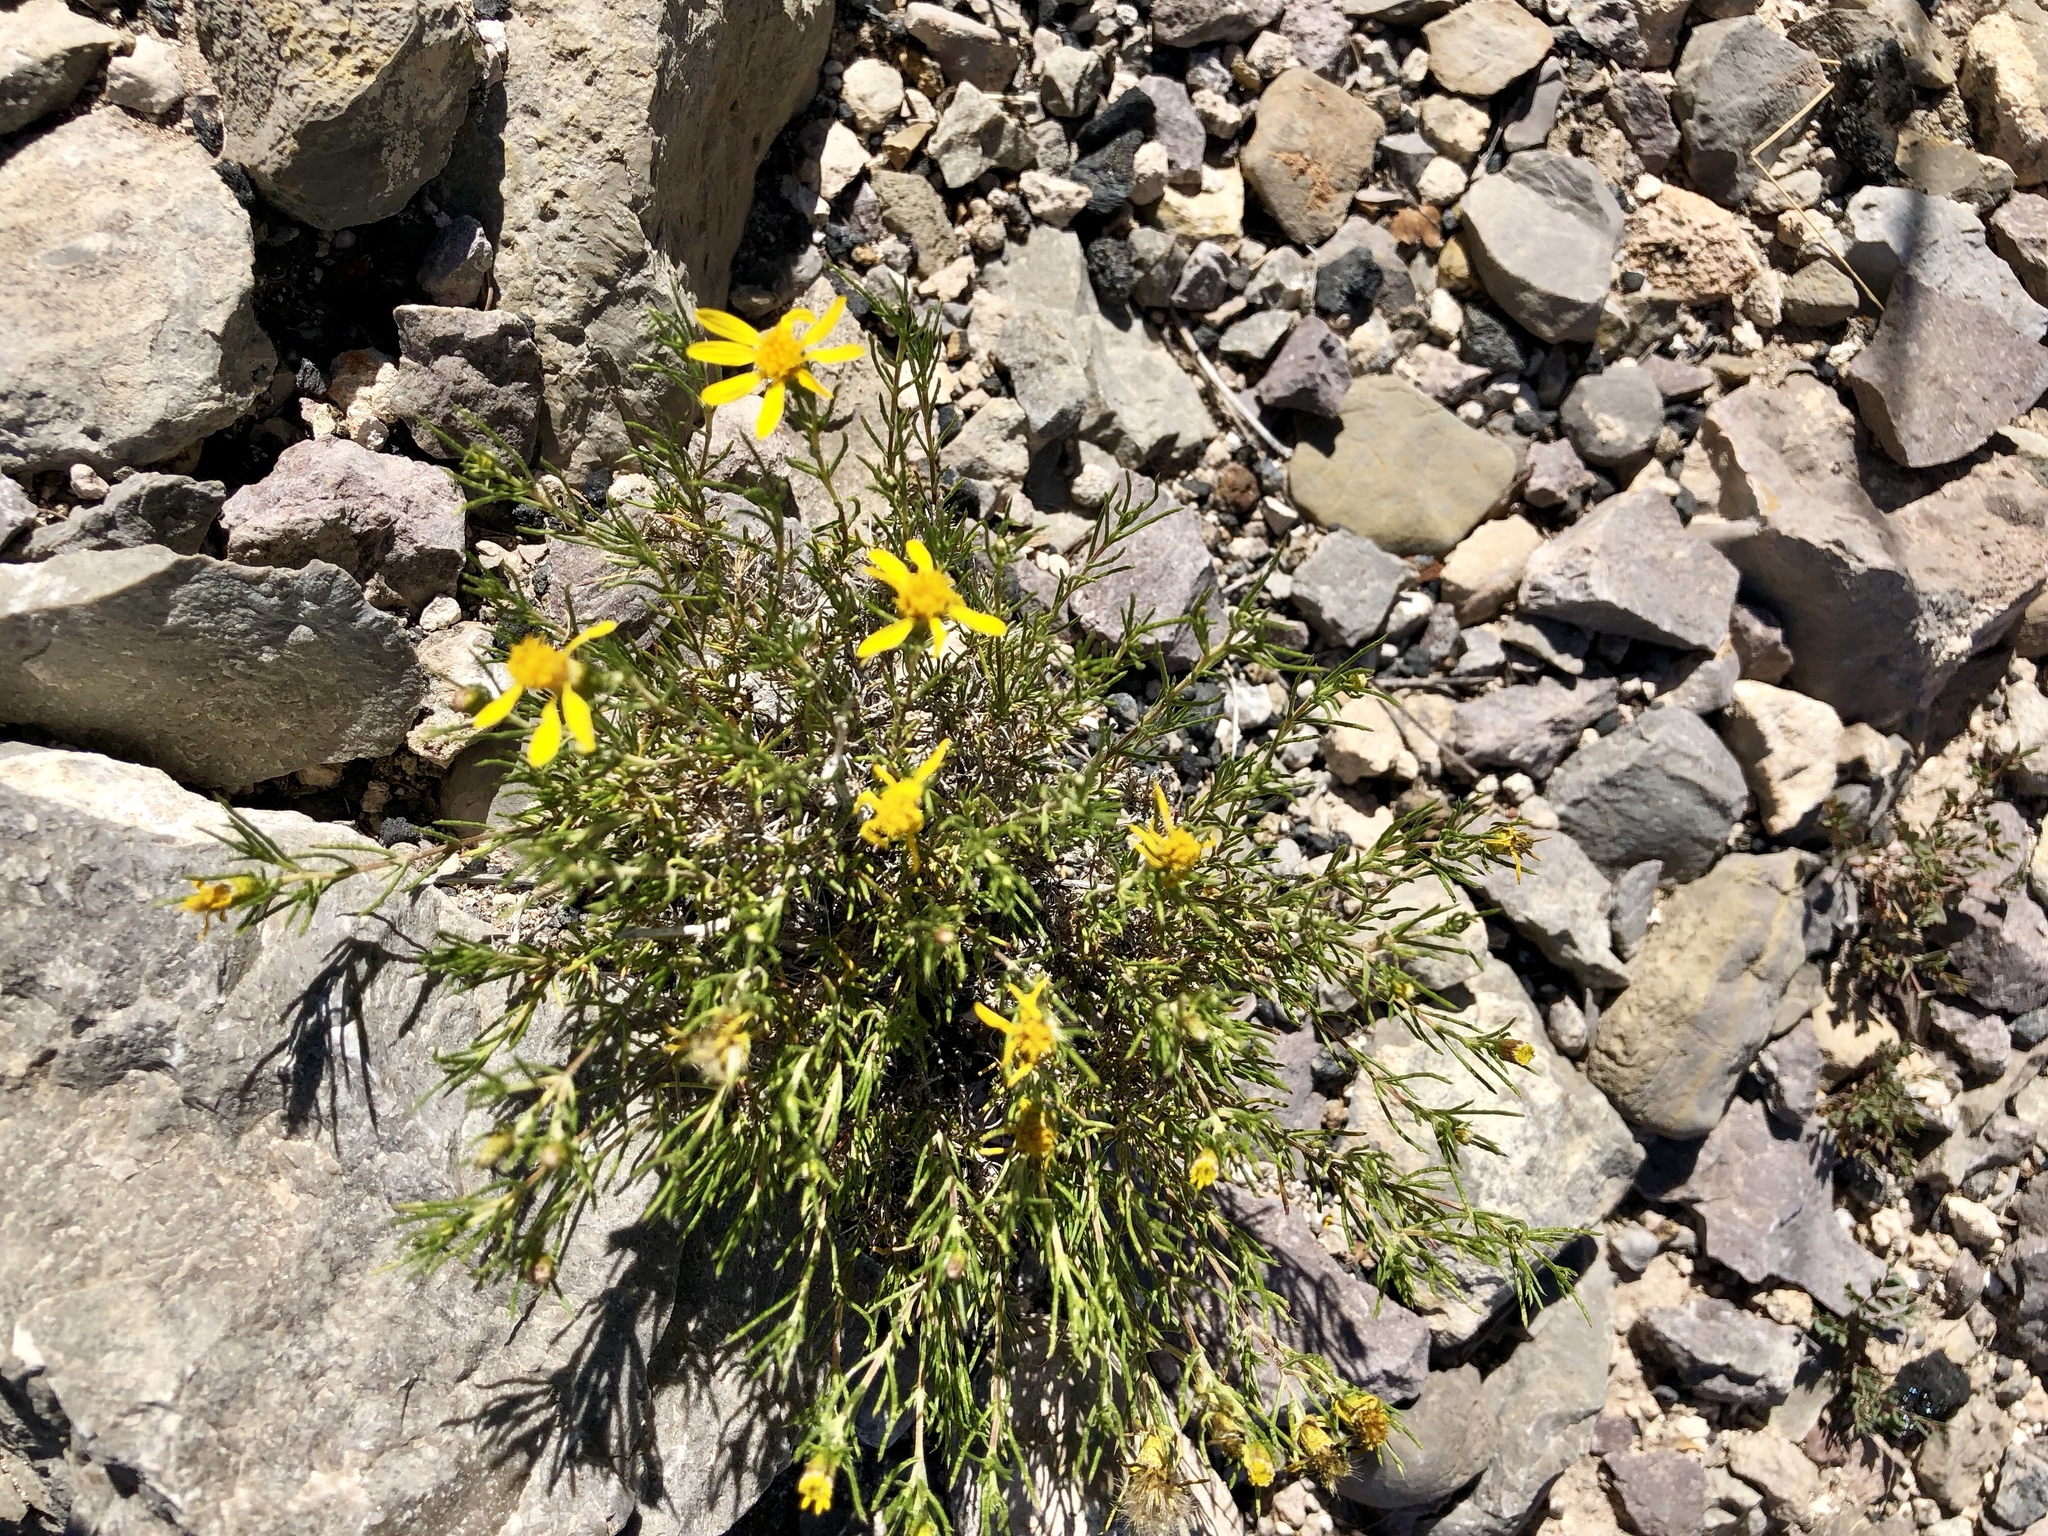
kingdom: Plantae
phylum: Tracheophyta
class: Magnoliopsida
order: Asterales
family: Asteraceae
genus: Thymophylla
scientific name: Thymophylla acerosa
